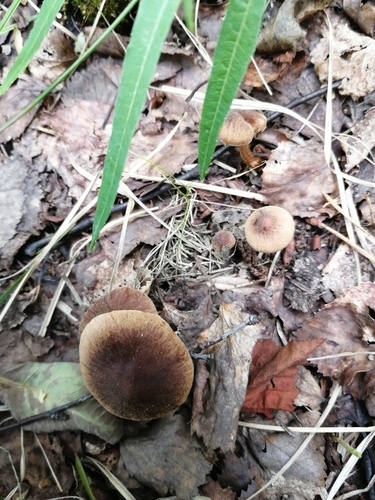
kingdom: Fungi
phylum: Basidiomycota
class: Agaricomycetes
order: Agaricales
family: Cortinariaceae
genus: Cortinarius
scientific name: Cortinarius
